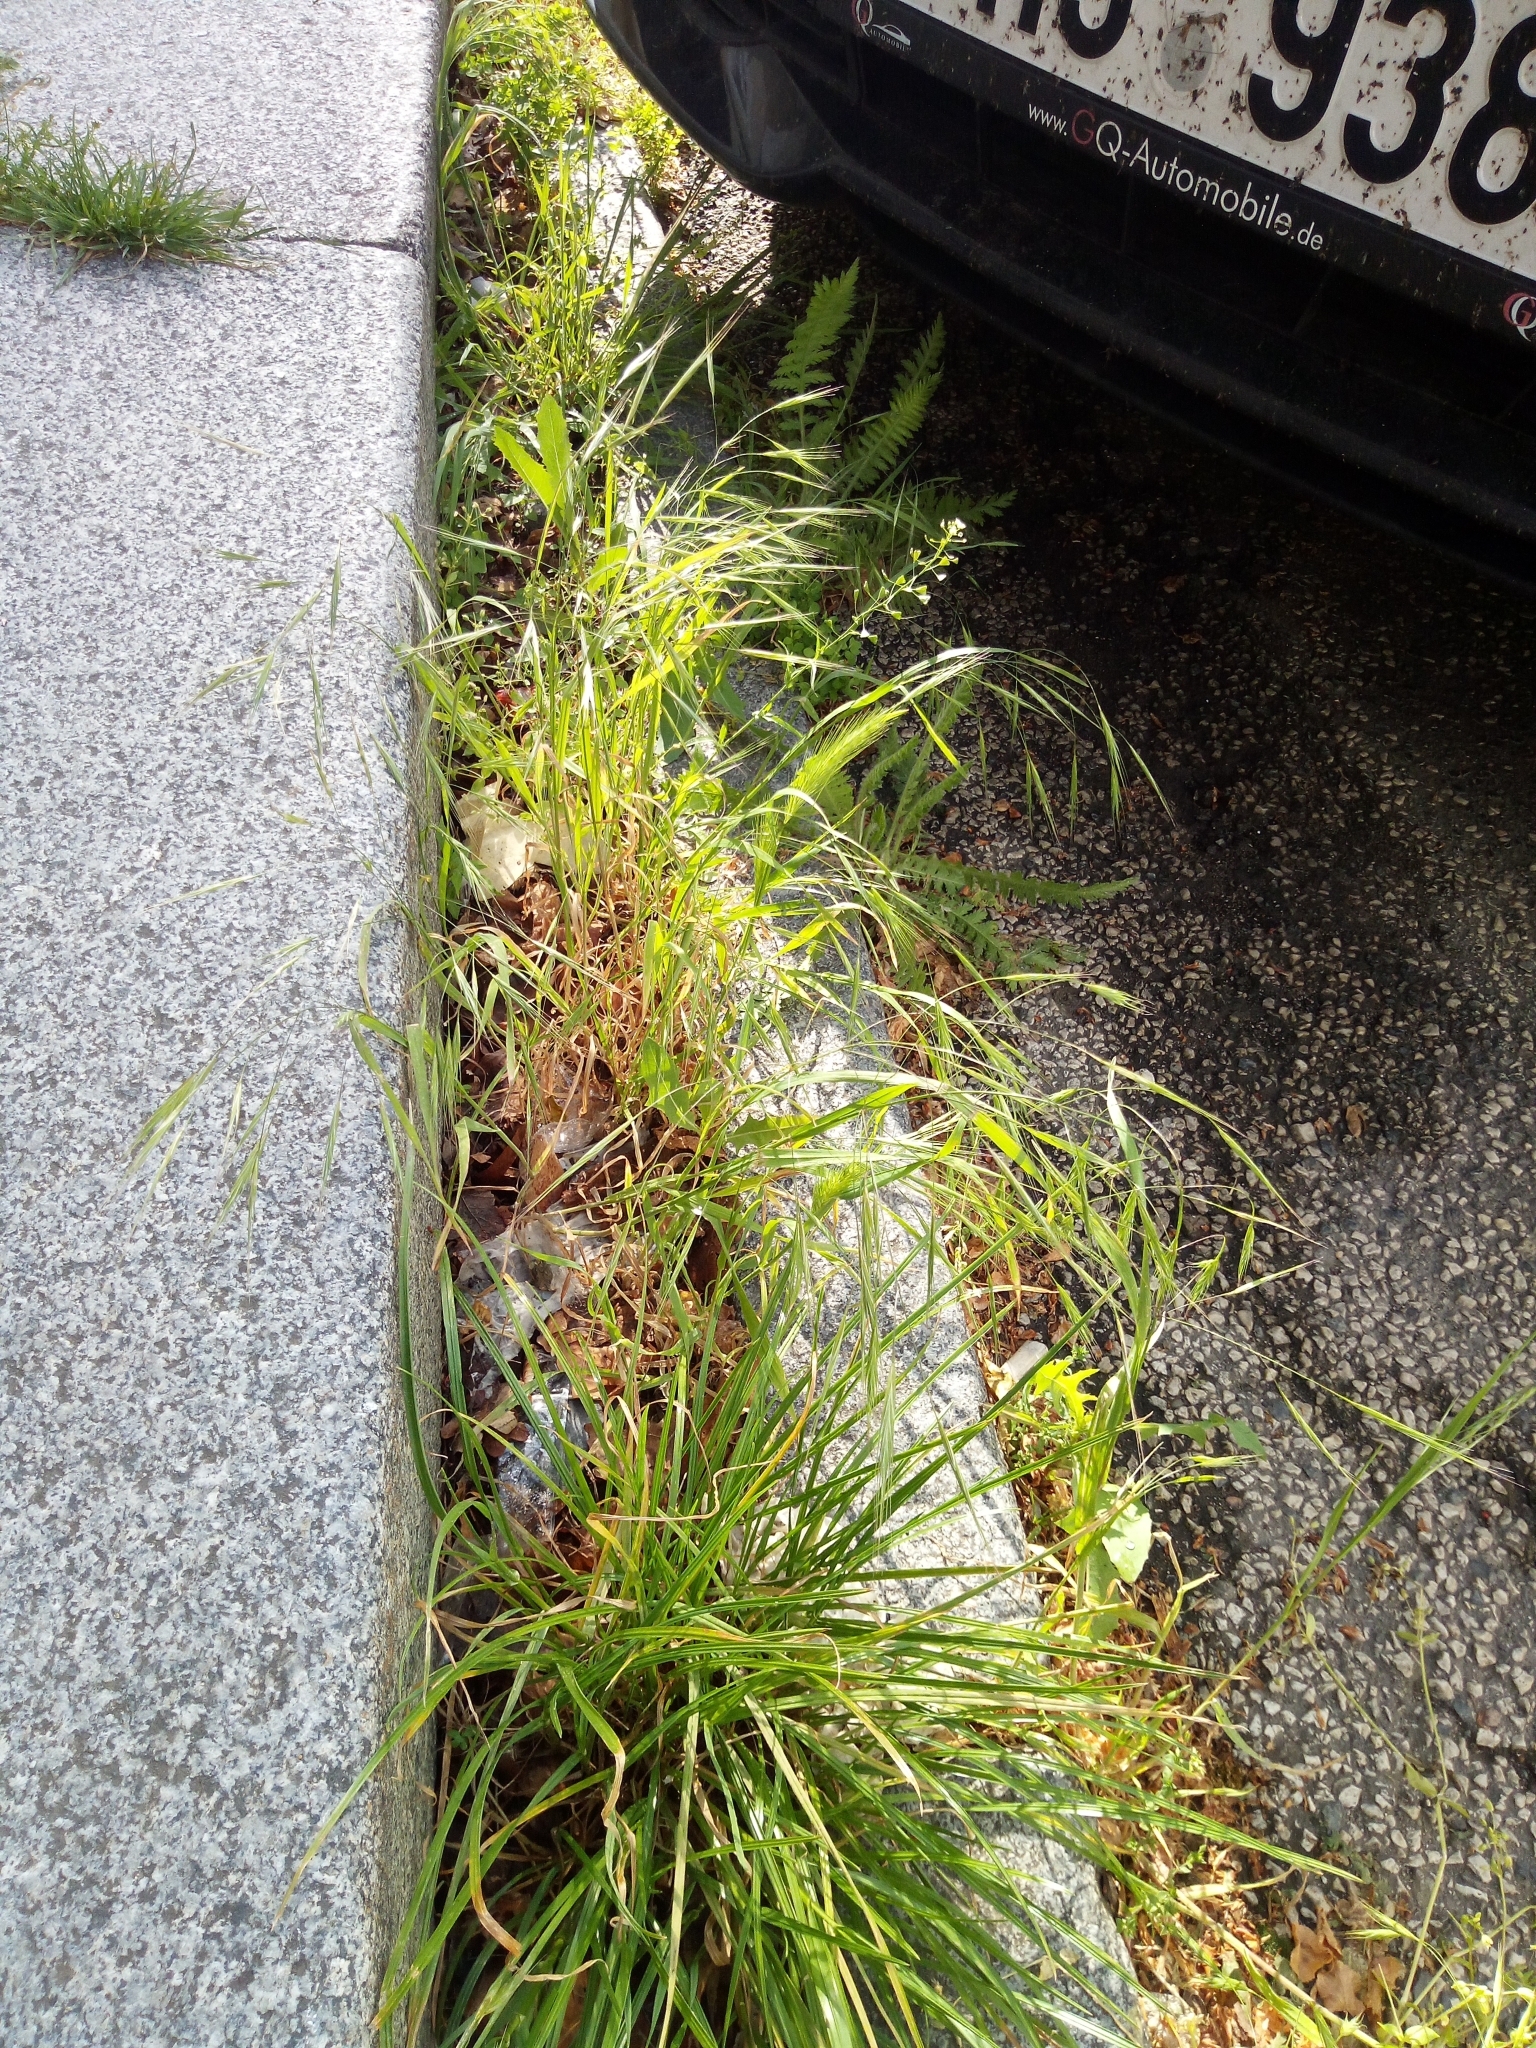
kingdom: Plantae
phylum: Tracheophyta
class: Liliopsida
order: Poales
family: Poaceae
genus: Bromus
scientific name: Bromus sterilis
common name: Poverty brome
